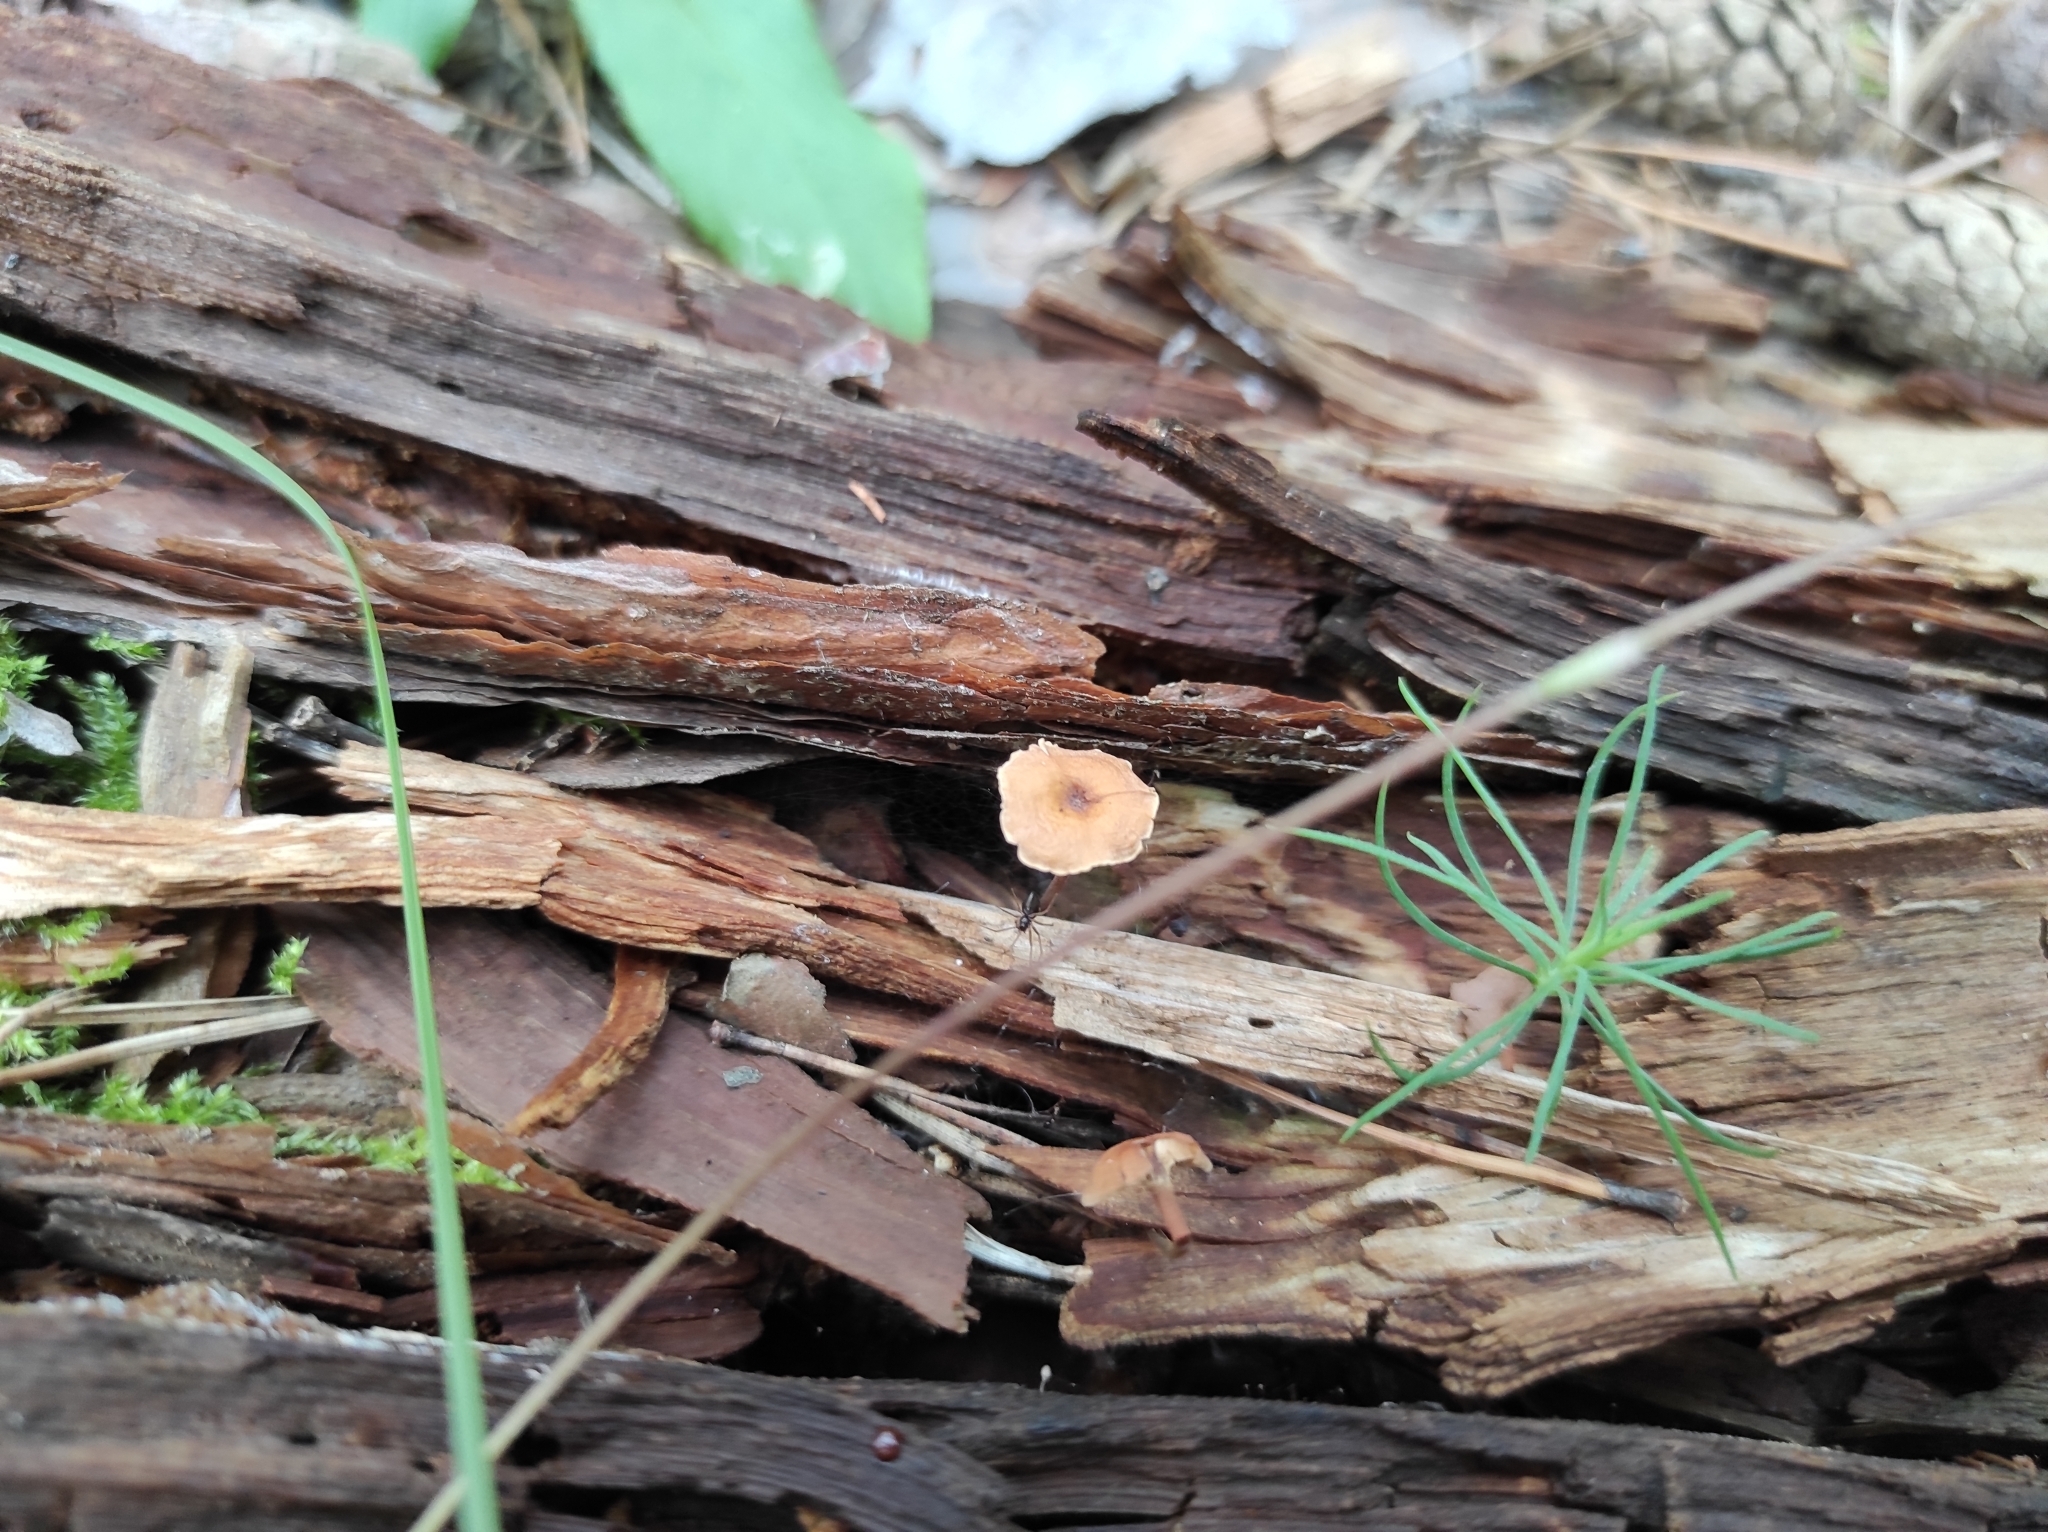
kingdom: Plantae
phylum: Tracheophyta
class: Pinopsida
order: Pinales
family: Pinaceae
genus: Pinus
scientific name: Pinus sylvestris
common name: Scots pine
